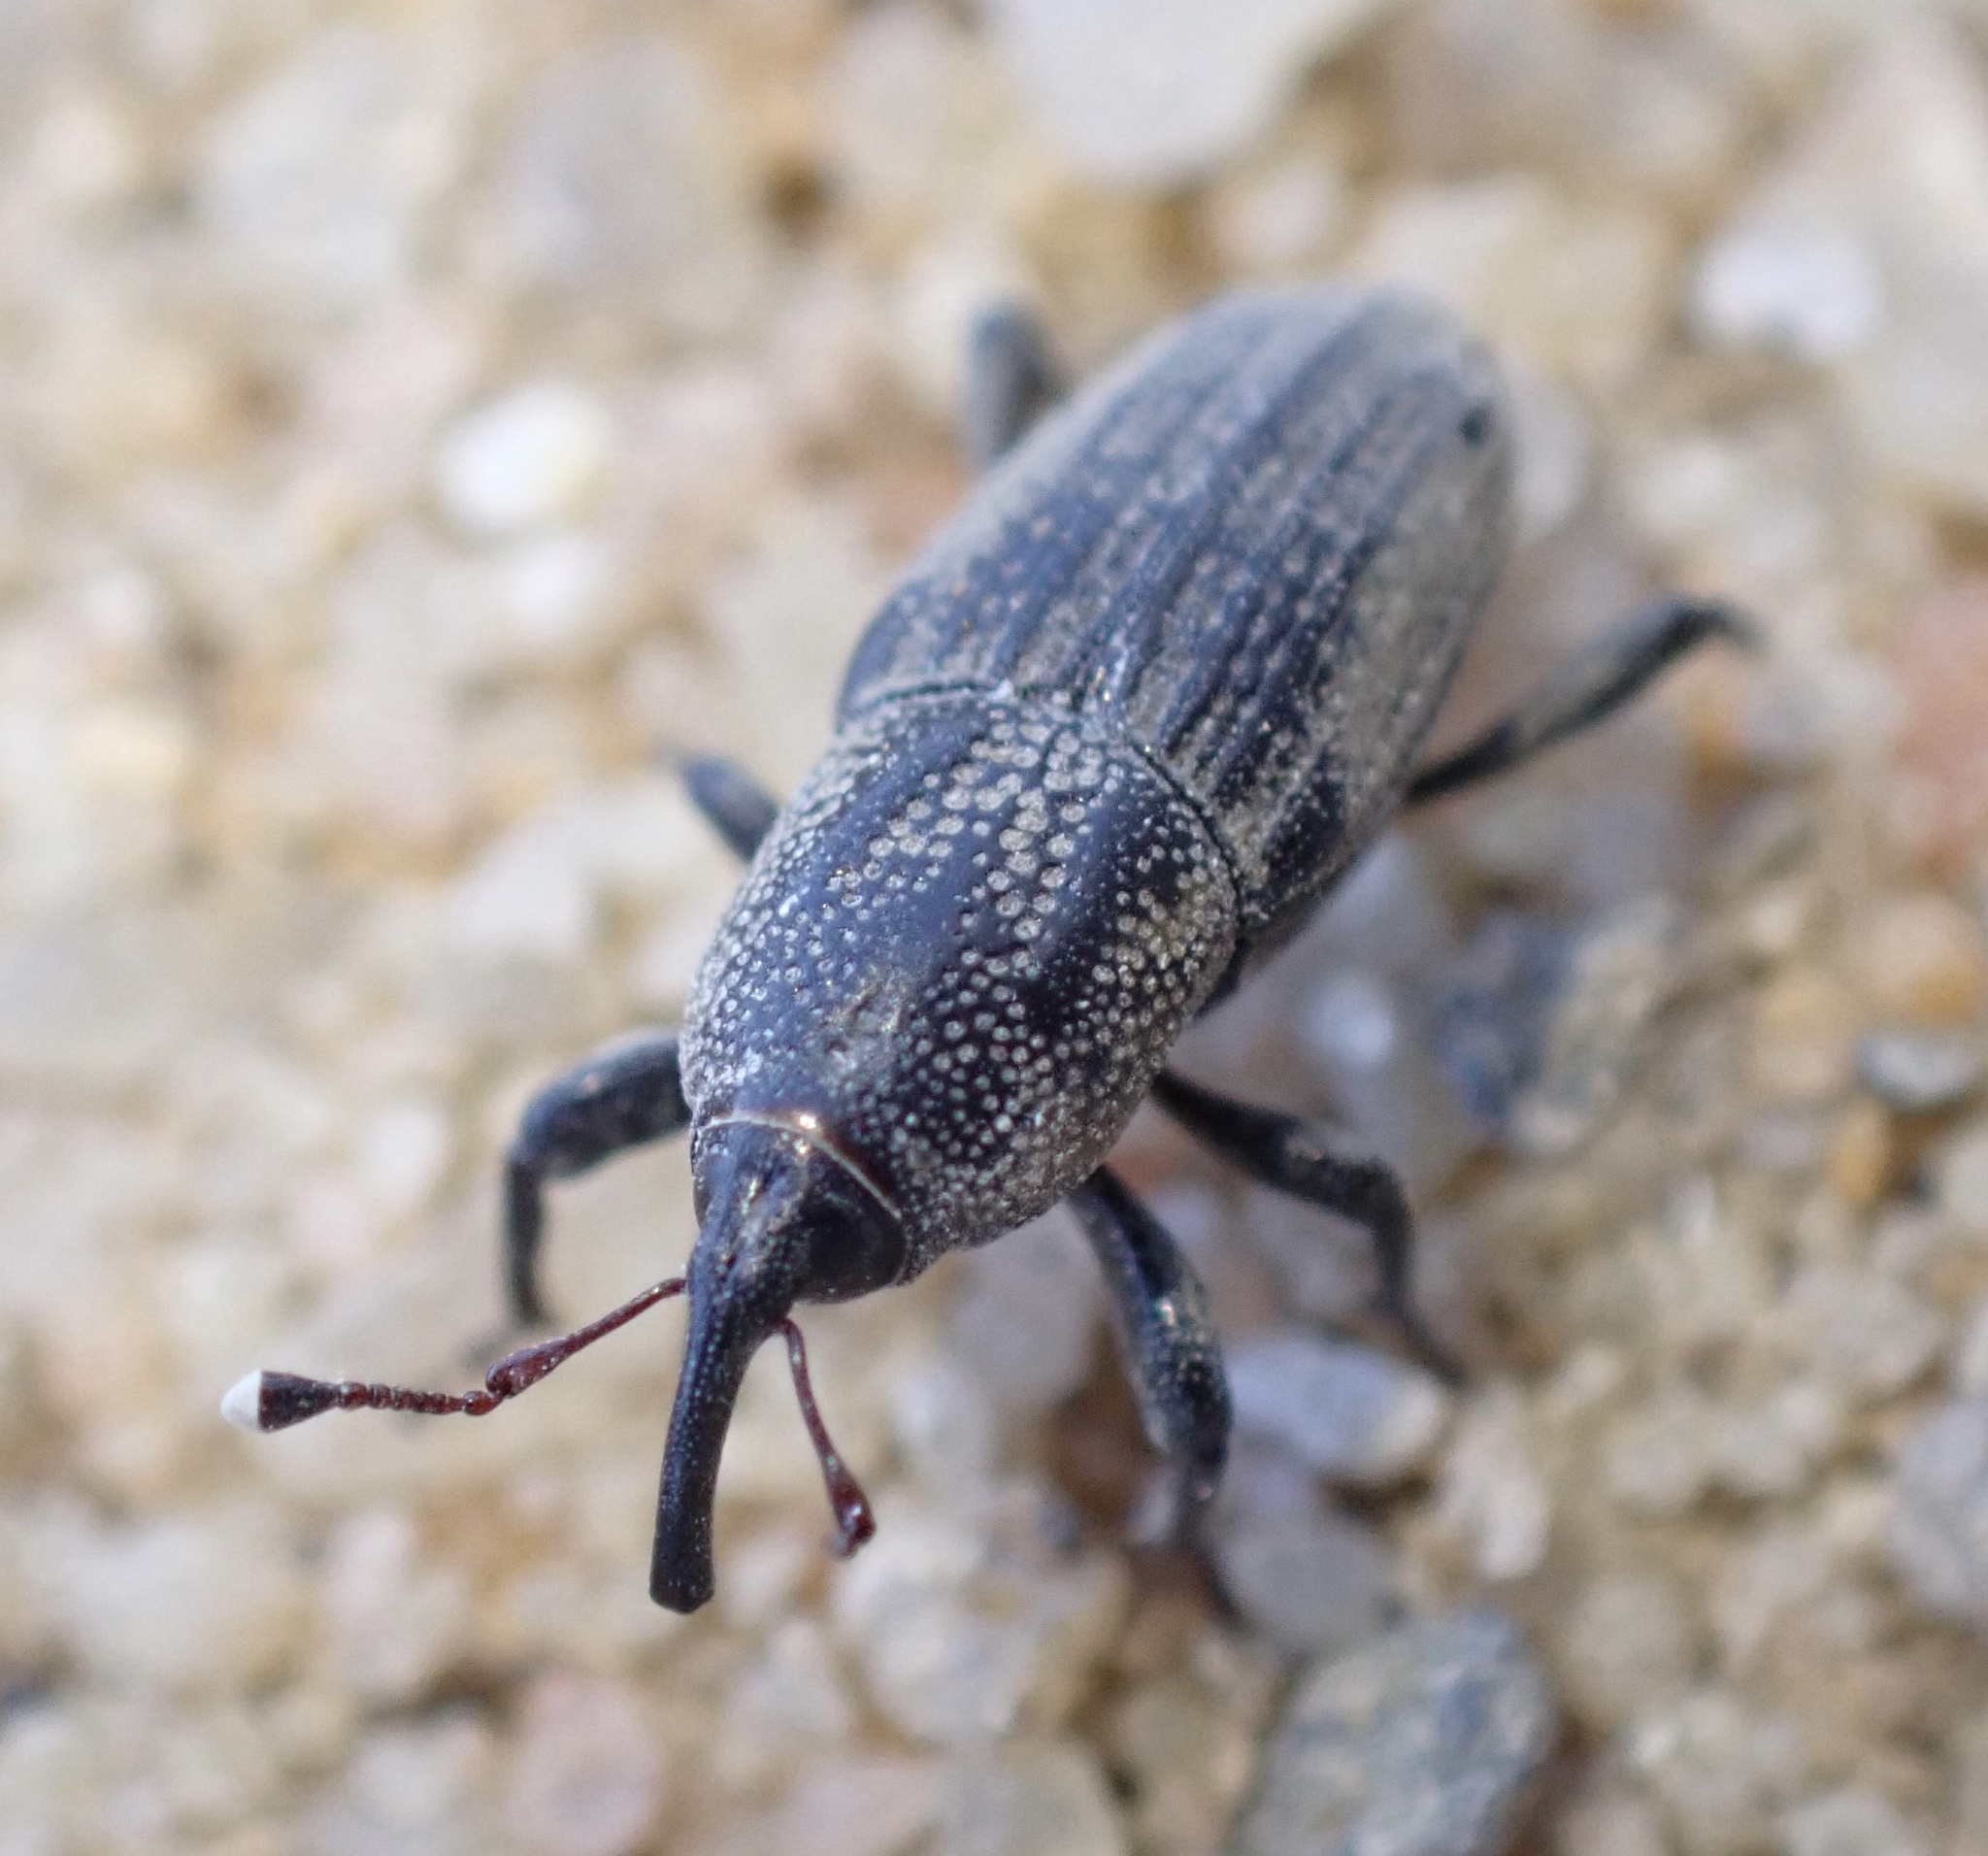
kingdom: Animalia
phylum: Arthropoda
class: Insecta
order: Coleoptera
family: Dryophthoridae
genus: Sphenophorus
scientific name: Sphenophorus venatus
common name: Hunting billbug
